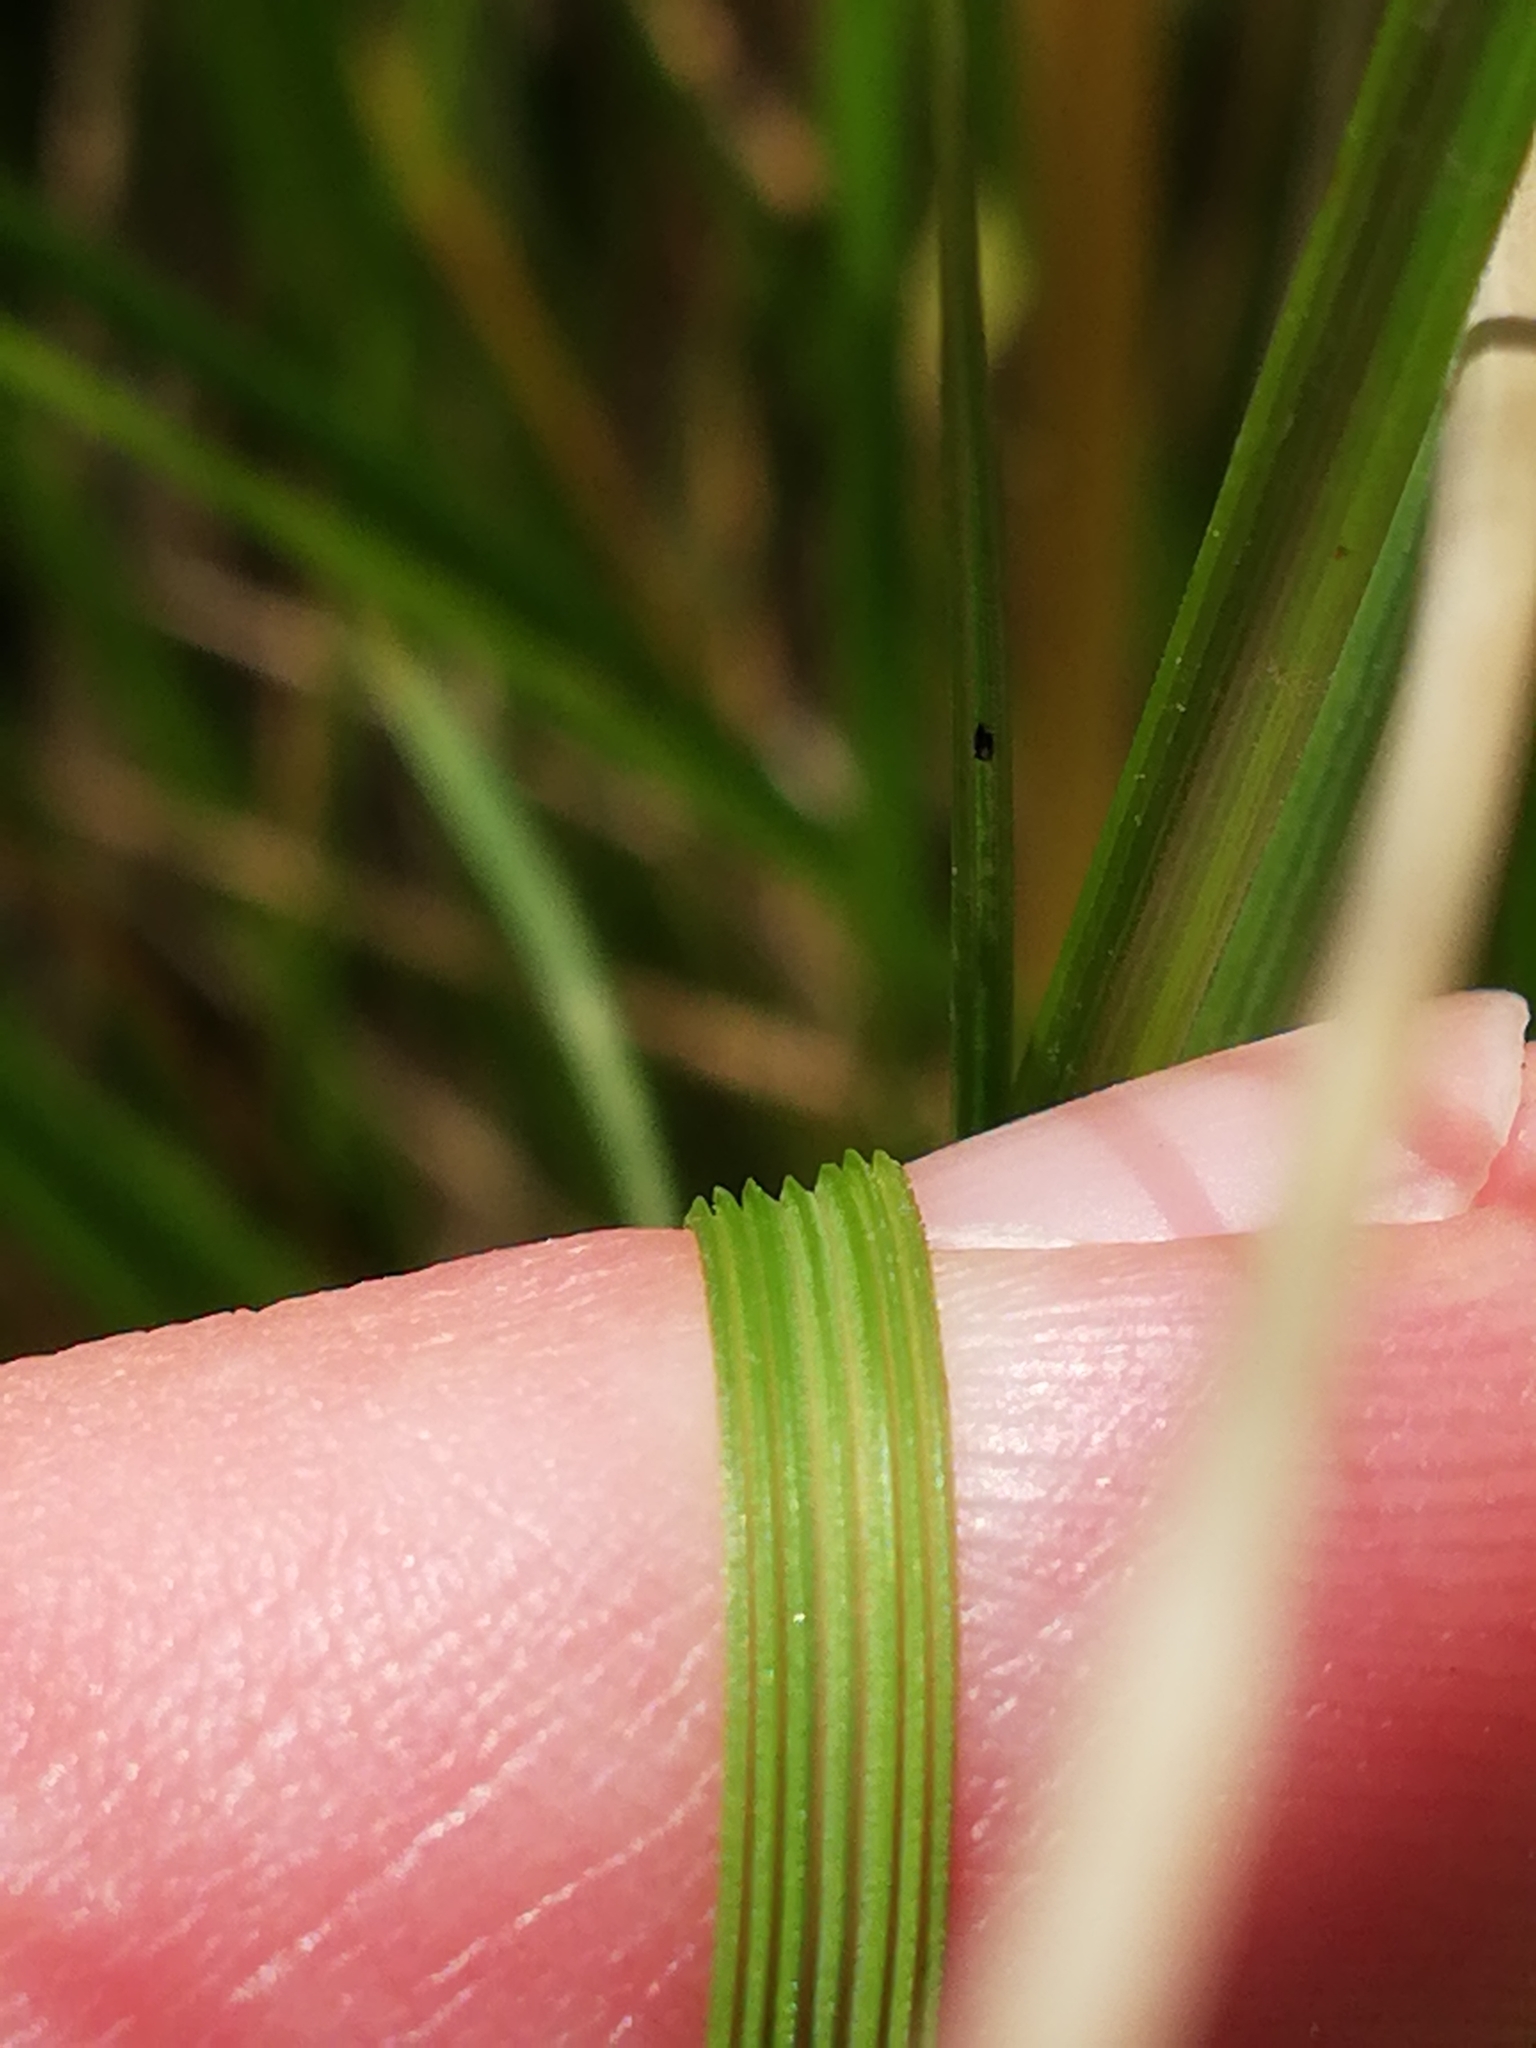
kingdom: Plantae
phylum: Tracheophyta
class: Liliopsida
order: Poales
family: Poaceae
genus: Deschampsia
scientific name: Deschampsia cespitosa
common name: Tufted hair-grass
